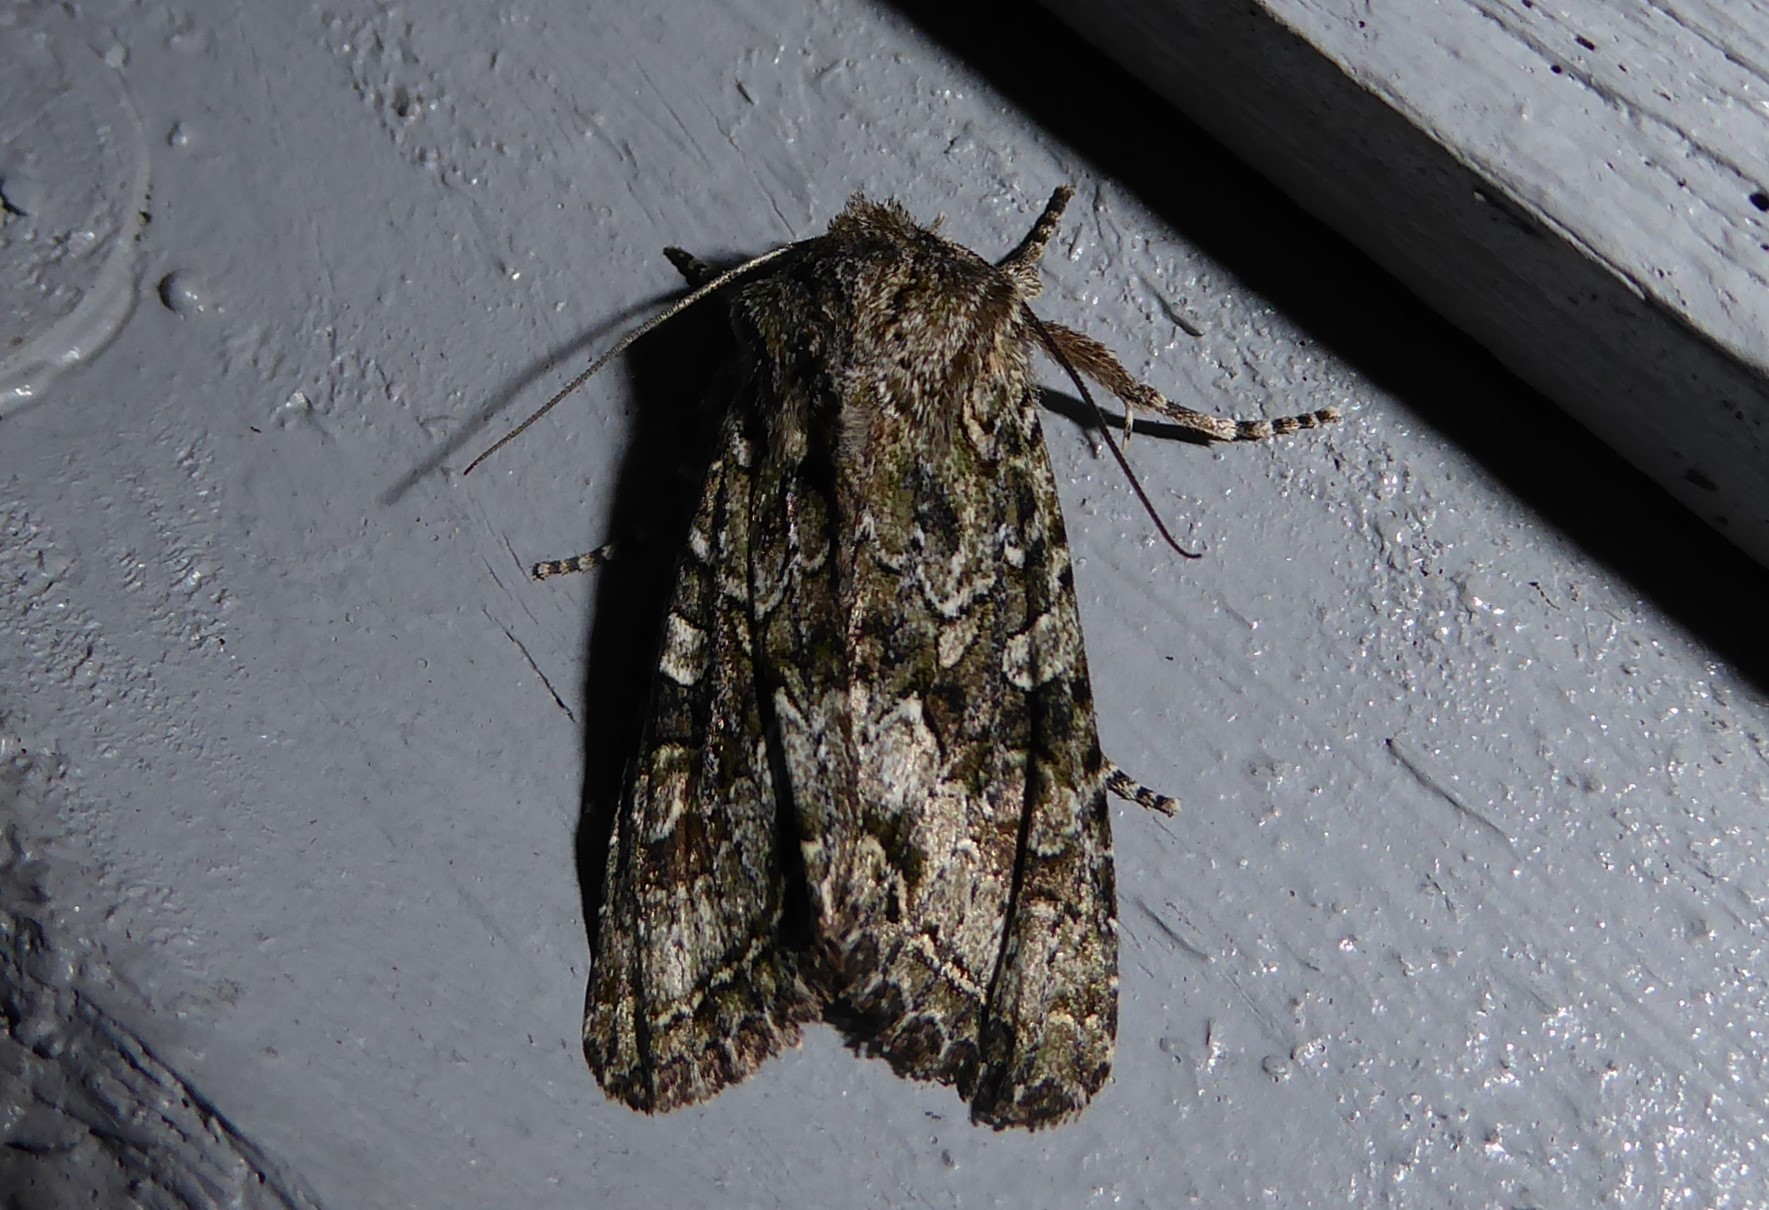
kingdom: Animalia
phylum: Arthropoda
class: Insecta
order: Lepidoptera
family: Noctuidae
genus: Ichneutica
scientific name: Ichneutica mutans
